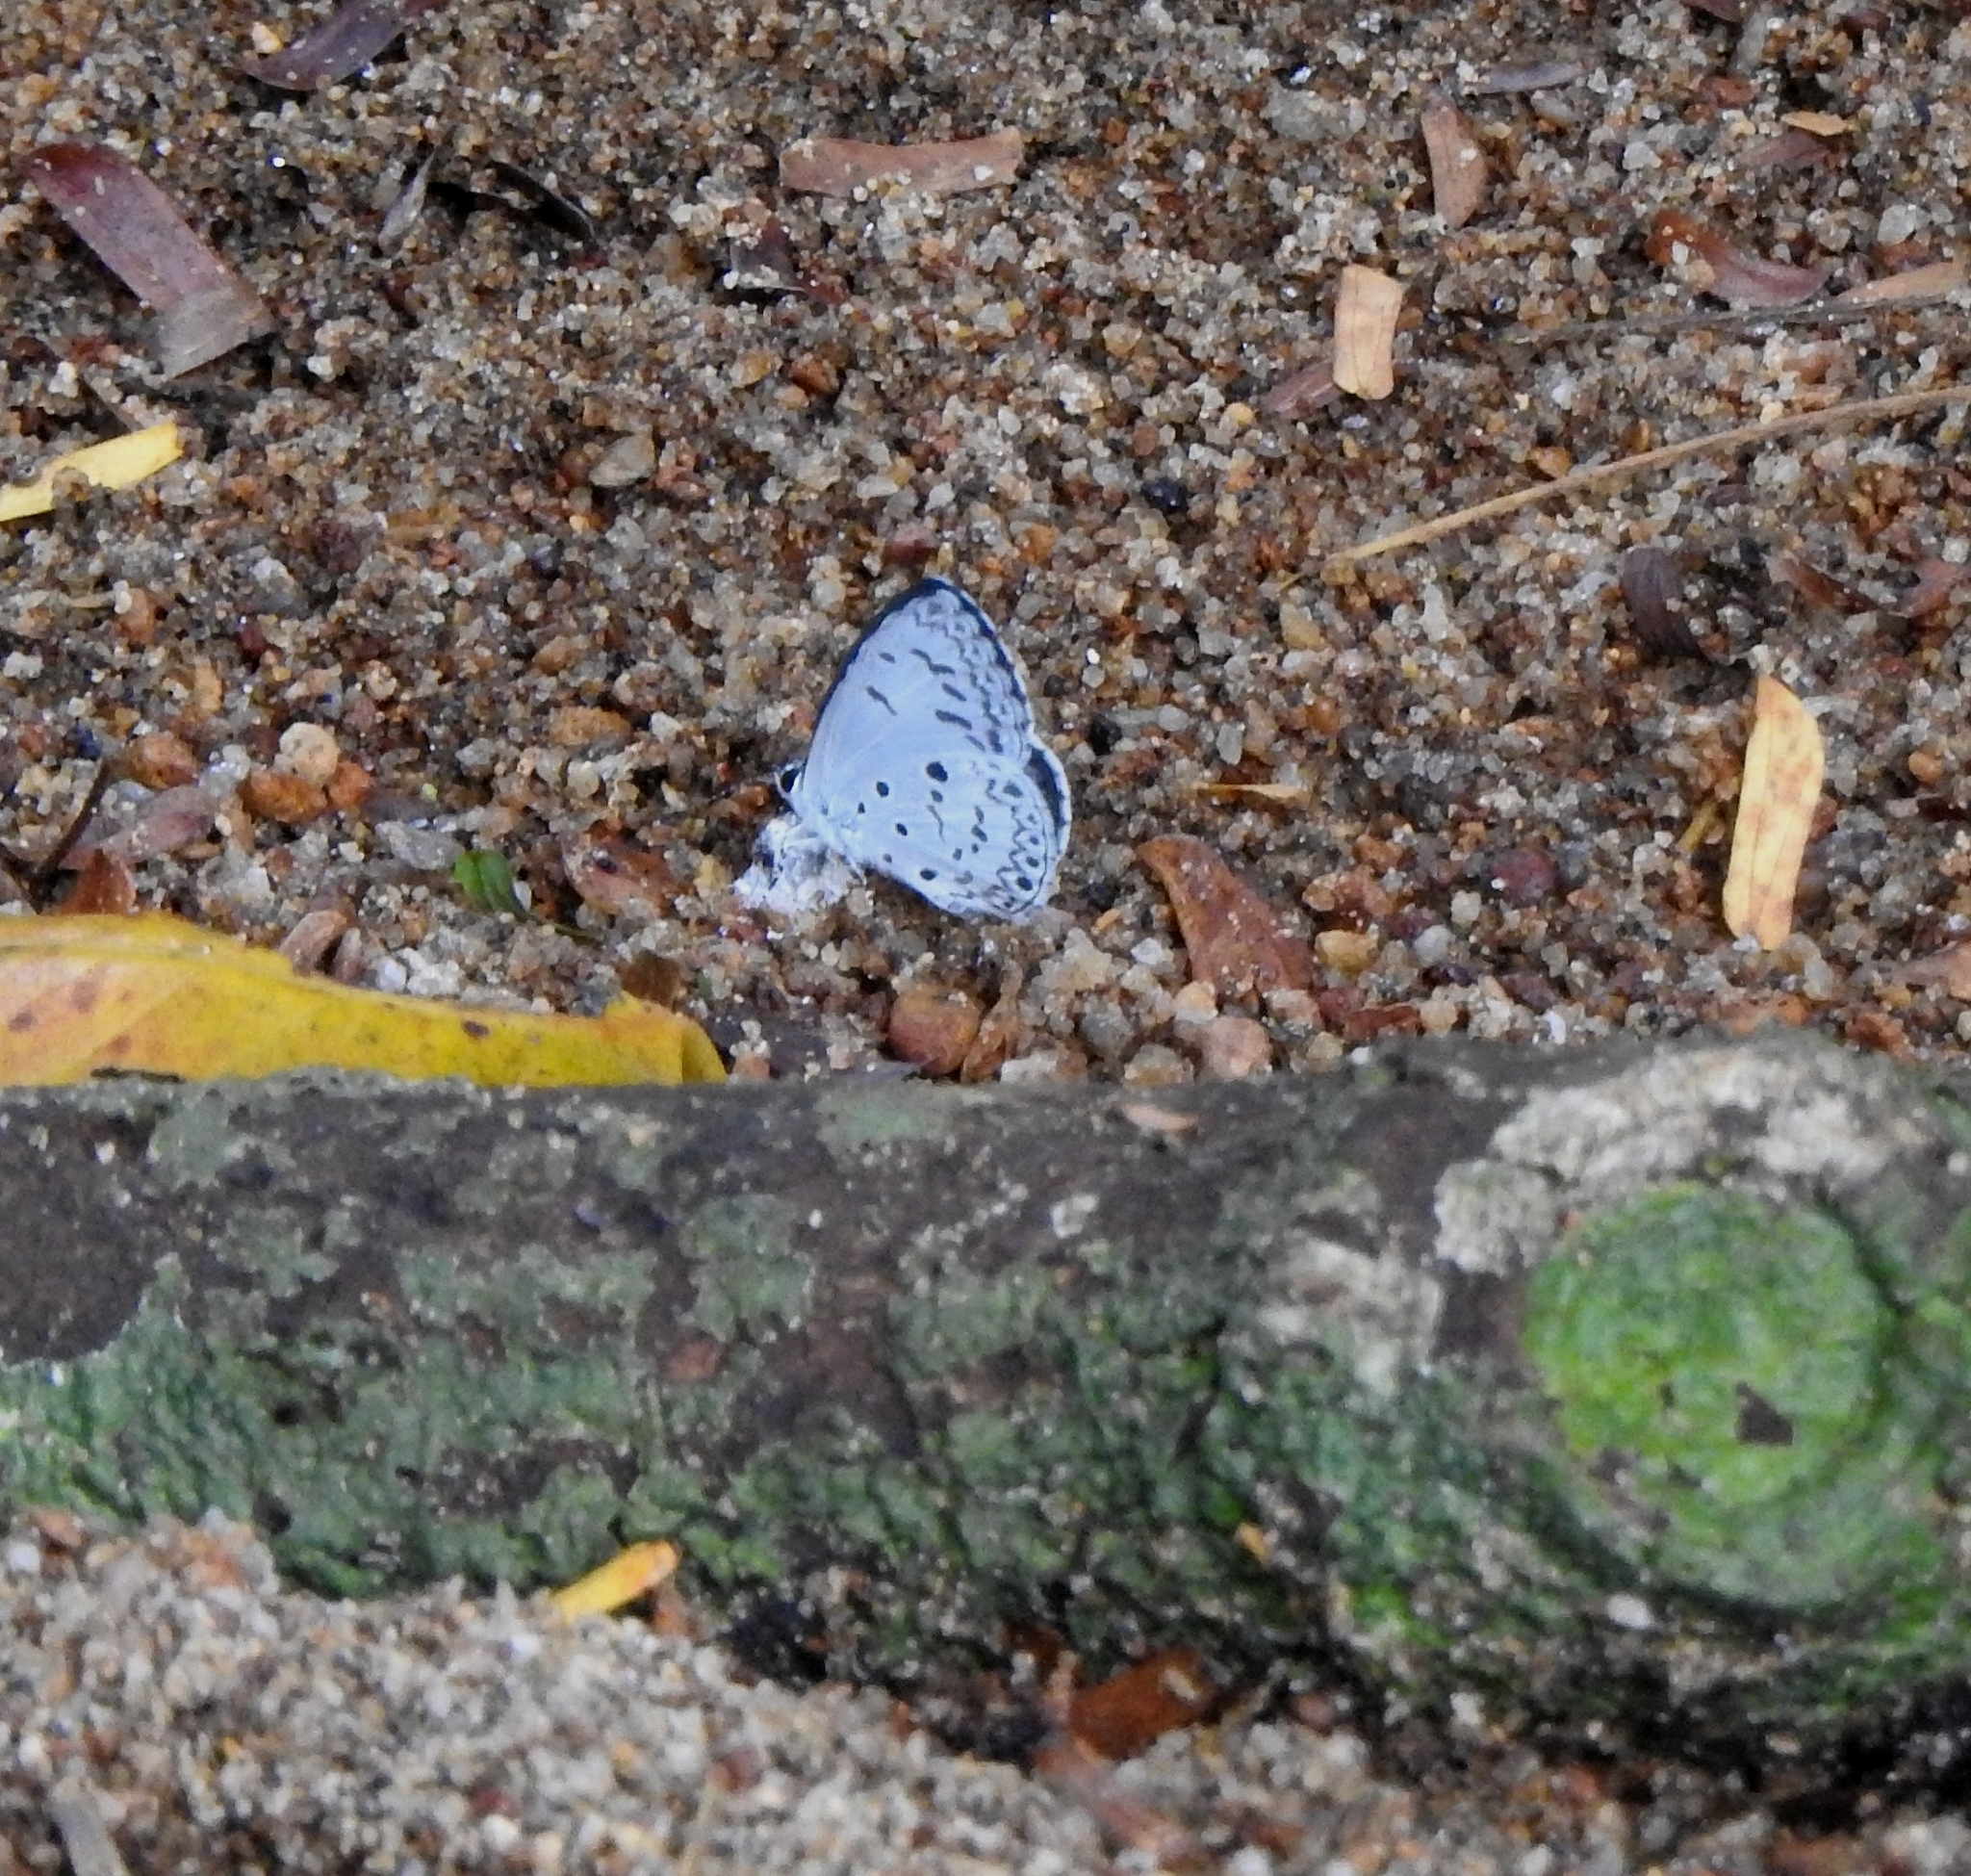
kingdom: Animalia
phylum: Arthropoda
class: Insecta
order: Lepidoptera
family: Lycaenidae
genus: Acytolepis
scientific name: Acytolepis puspa
